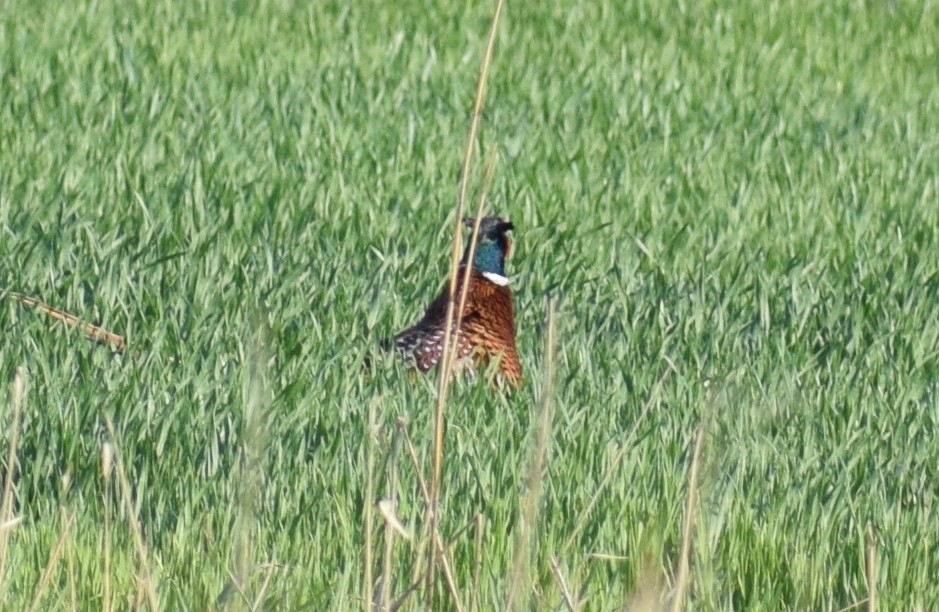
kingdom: Animalia
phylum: Chordata
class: Aves
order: Galliformes
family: Phasianidae
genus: Phasianus
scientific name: Phasianus colchicus
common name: Common pheasant
